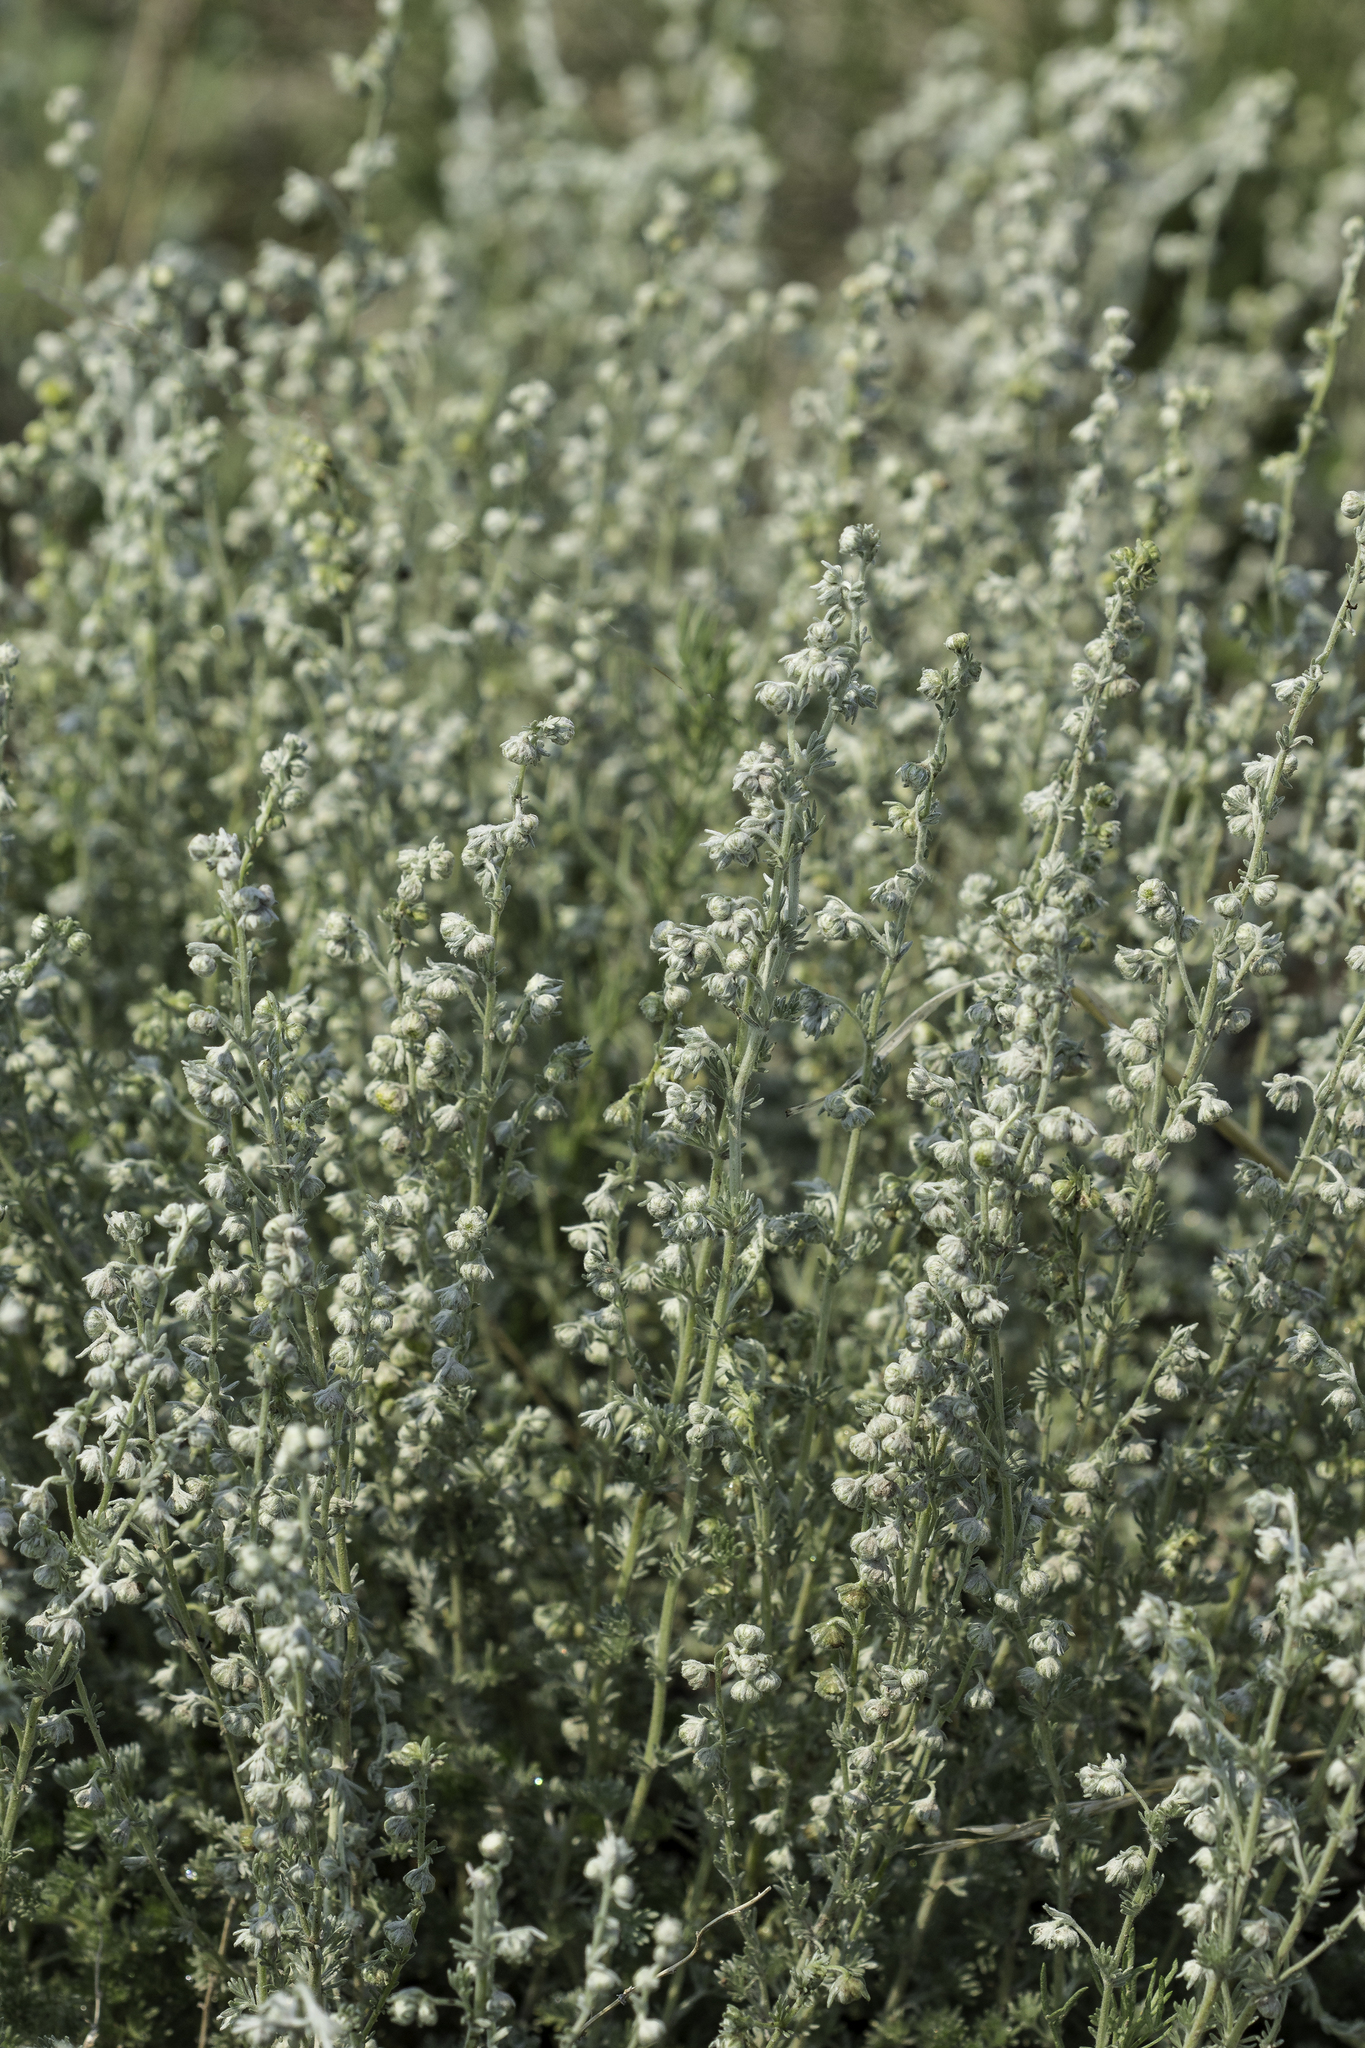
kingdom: Plantae
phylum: Tracheophyta
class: Magnoliopsida
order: Asterales
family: Asteraceae
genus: Artemisia
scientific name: Artemisia frigida
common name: Prairie sagewort
